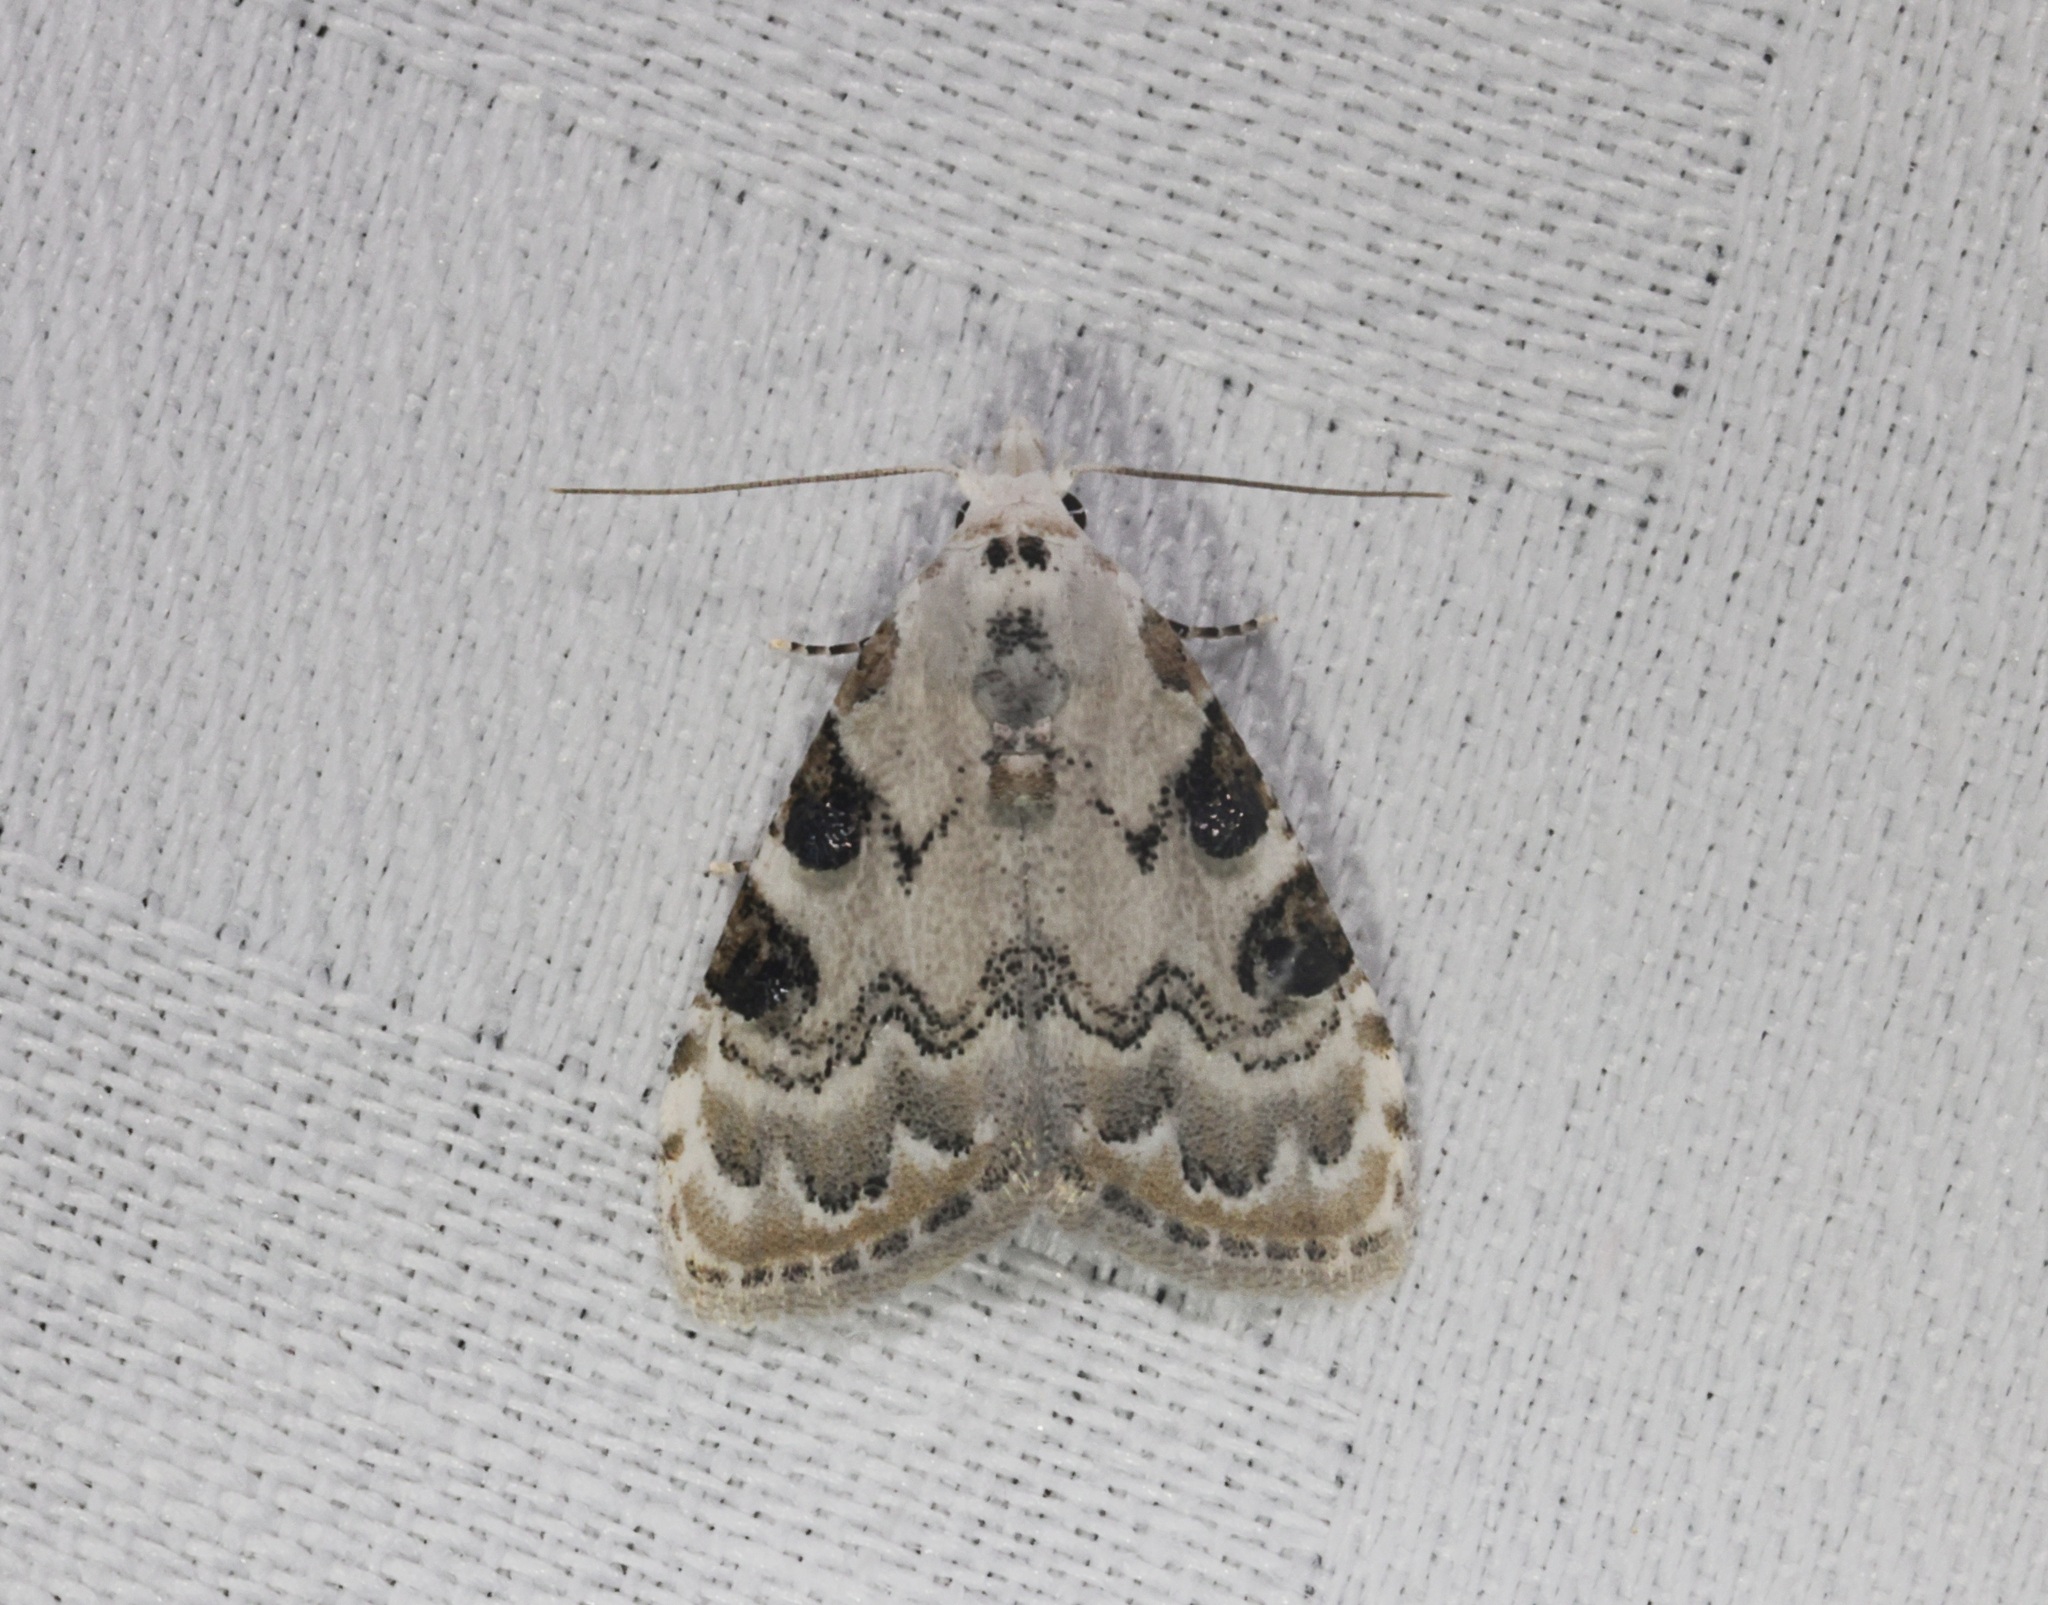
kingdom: Animalia
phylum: Arthropoda
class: Insecta
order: Lepidoptera
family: Nolidae
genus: Nola
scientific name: Nola pascua
